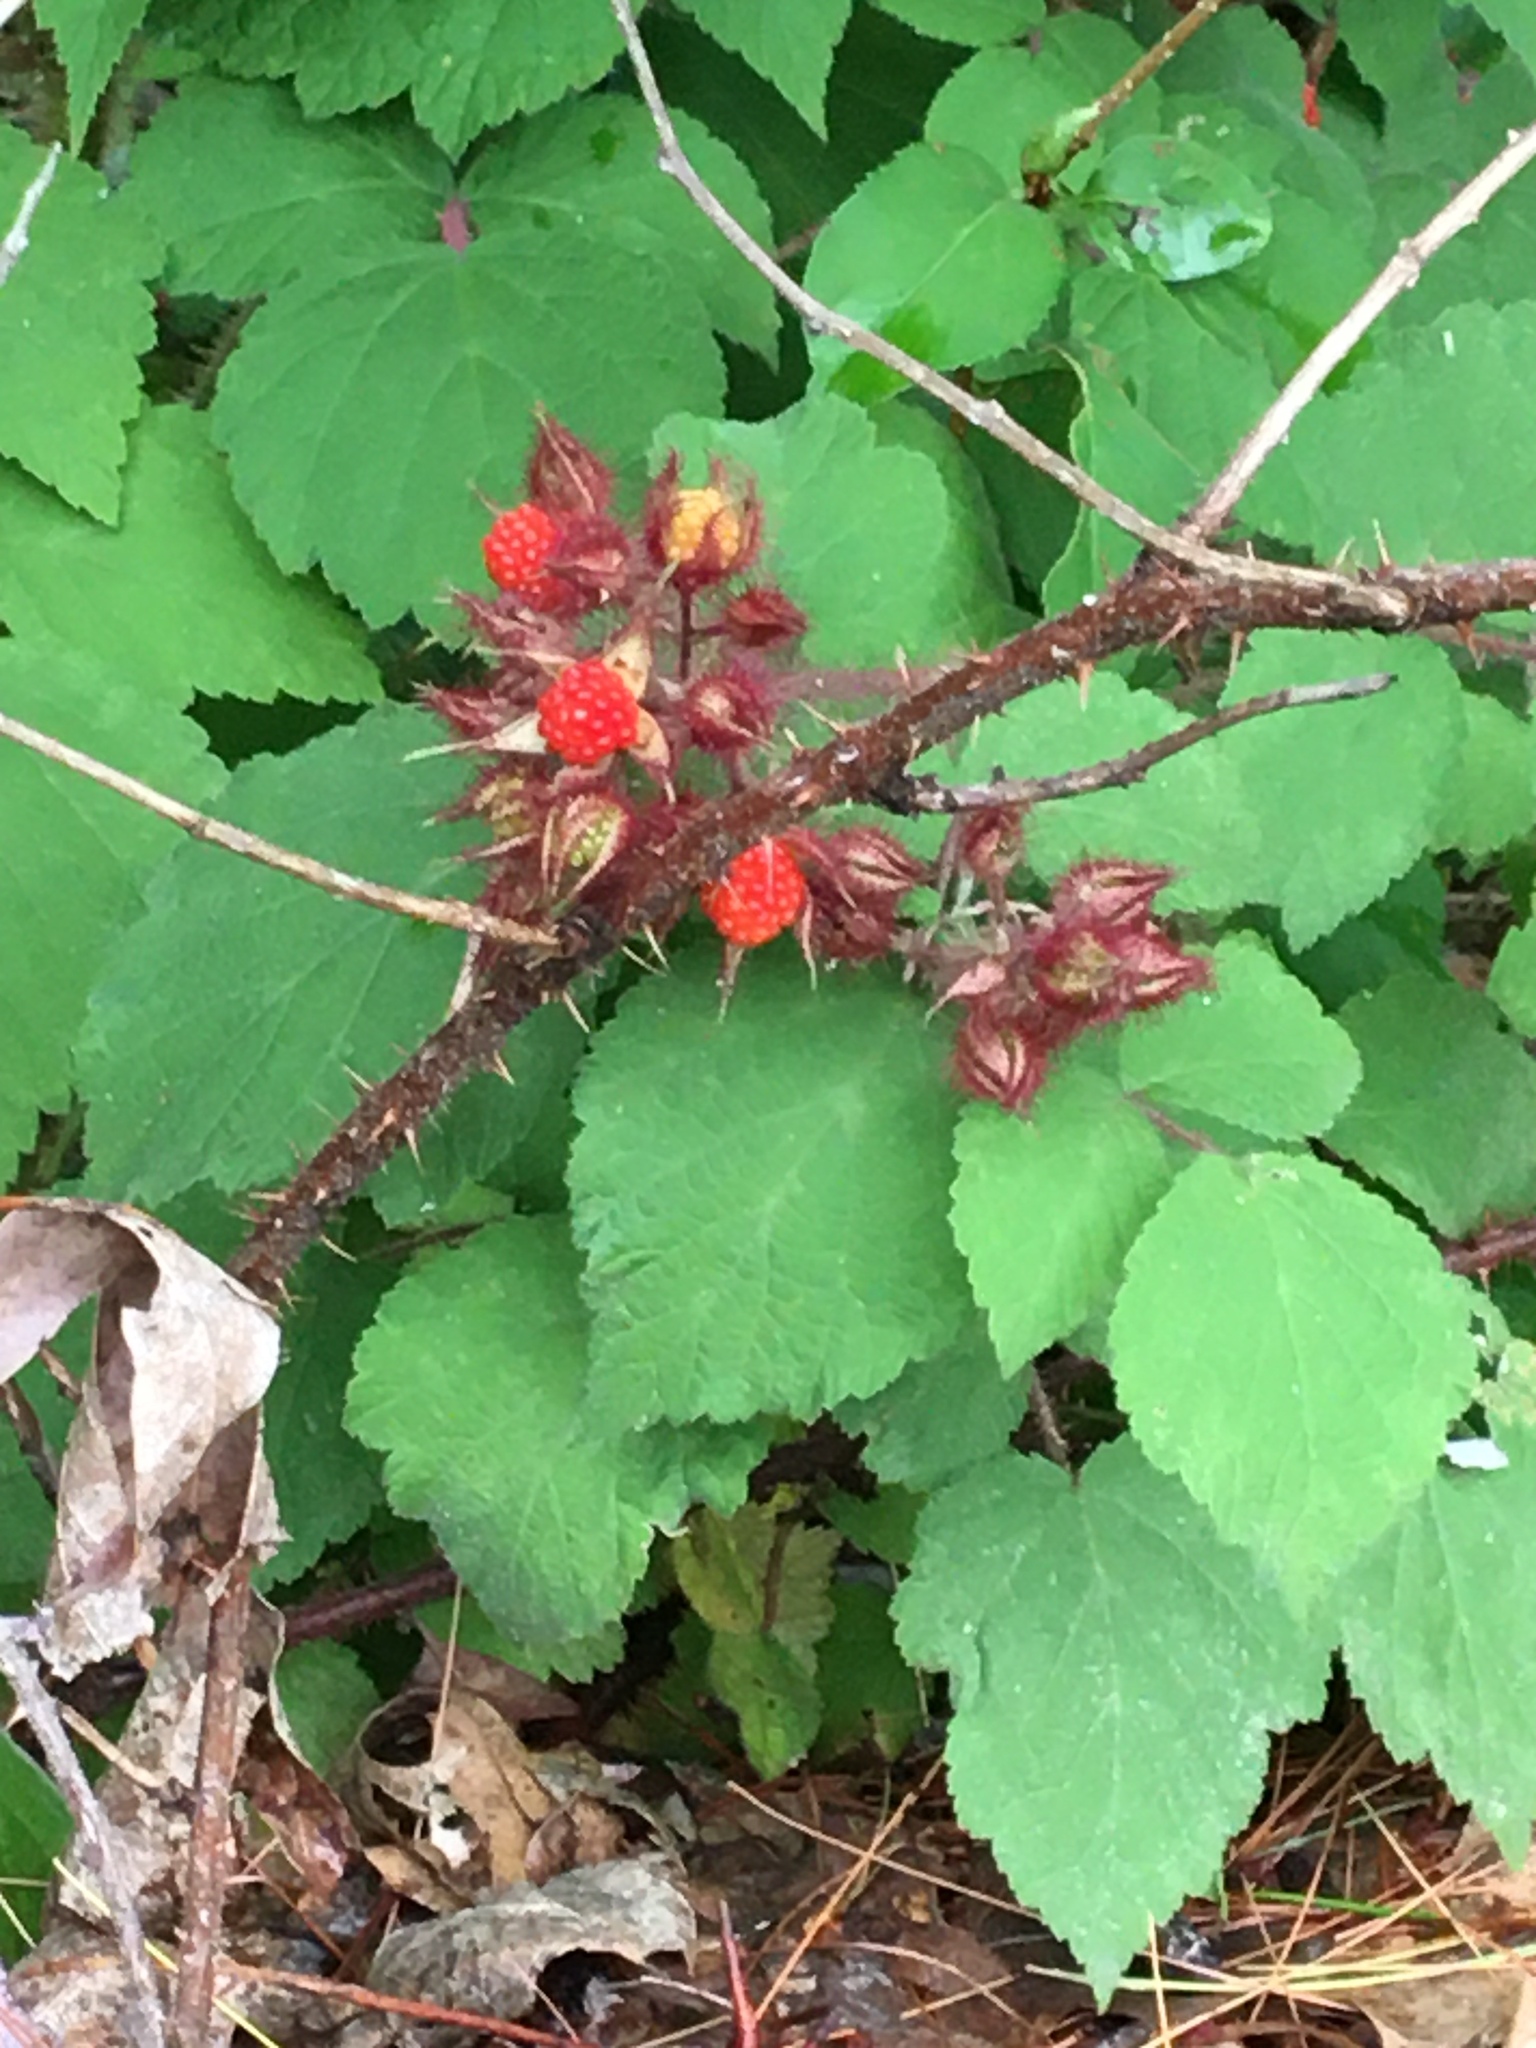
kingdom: Plantae
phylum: Tracheophyta
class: Magnoliopsida
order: Rosales
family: Rosaceae
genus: Rubus
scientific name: Rubus phoenicolasius
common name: Japanese wineberry
